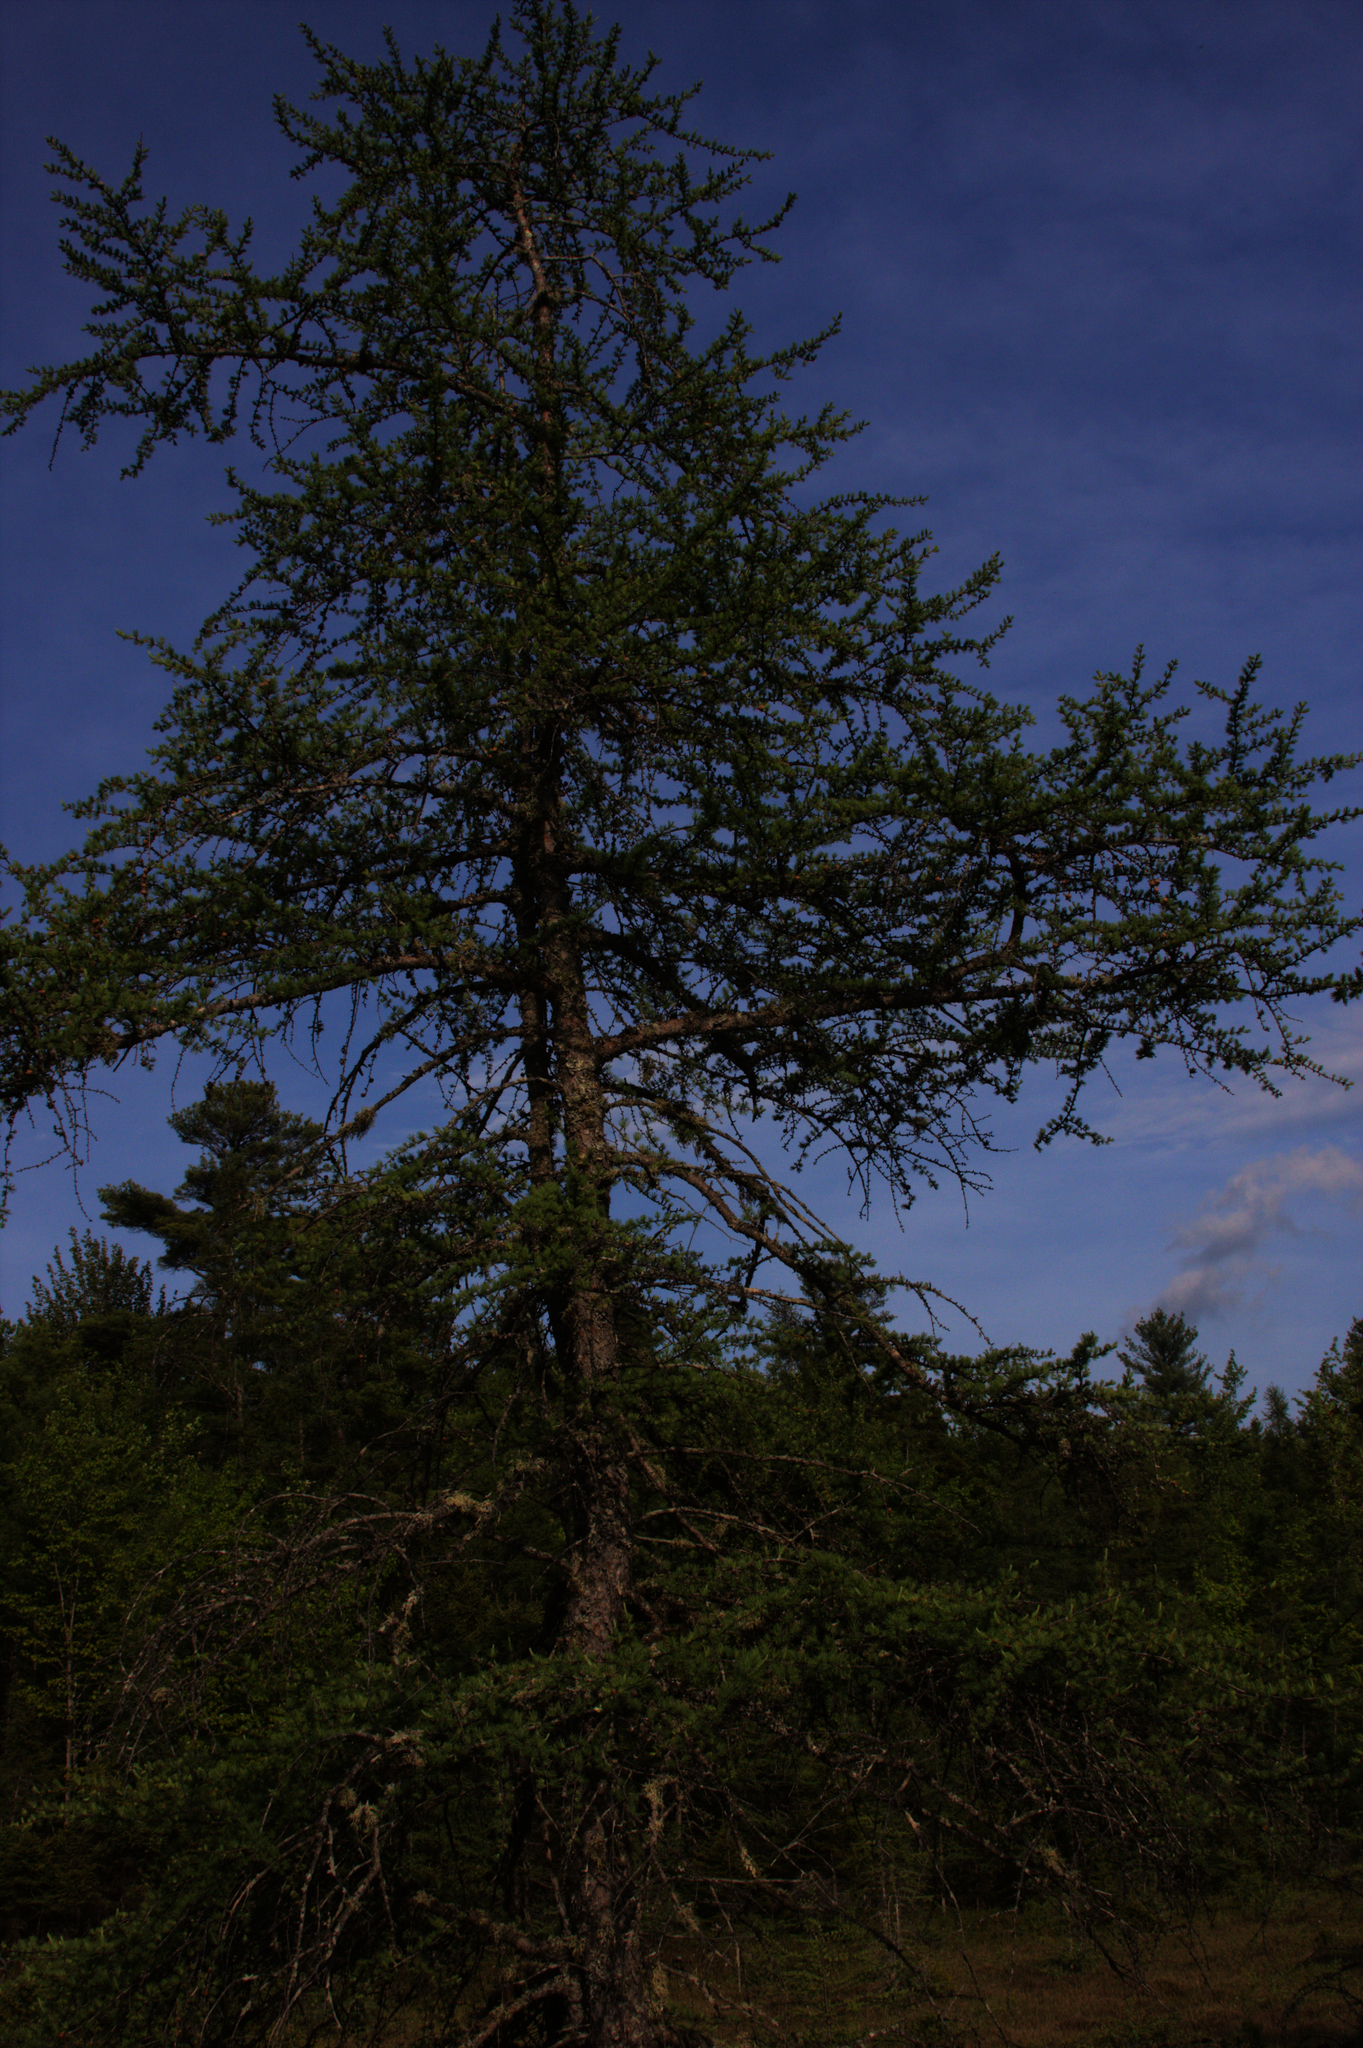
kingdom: Plantae
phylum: Tracheophyta
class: Pinopsida
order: Pinales
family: Pinaceae
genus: Larix
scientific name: Larix laricina
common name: American larch
